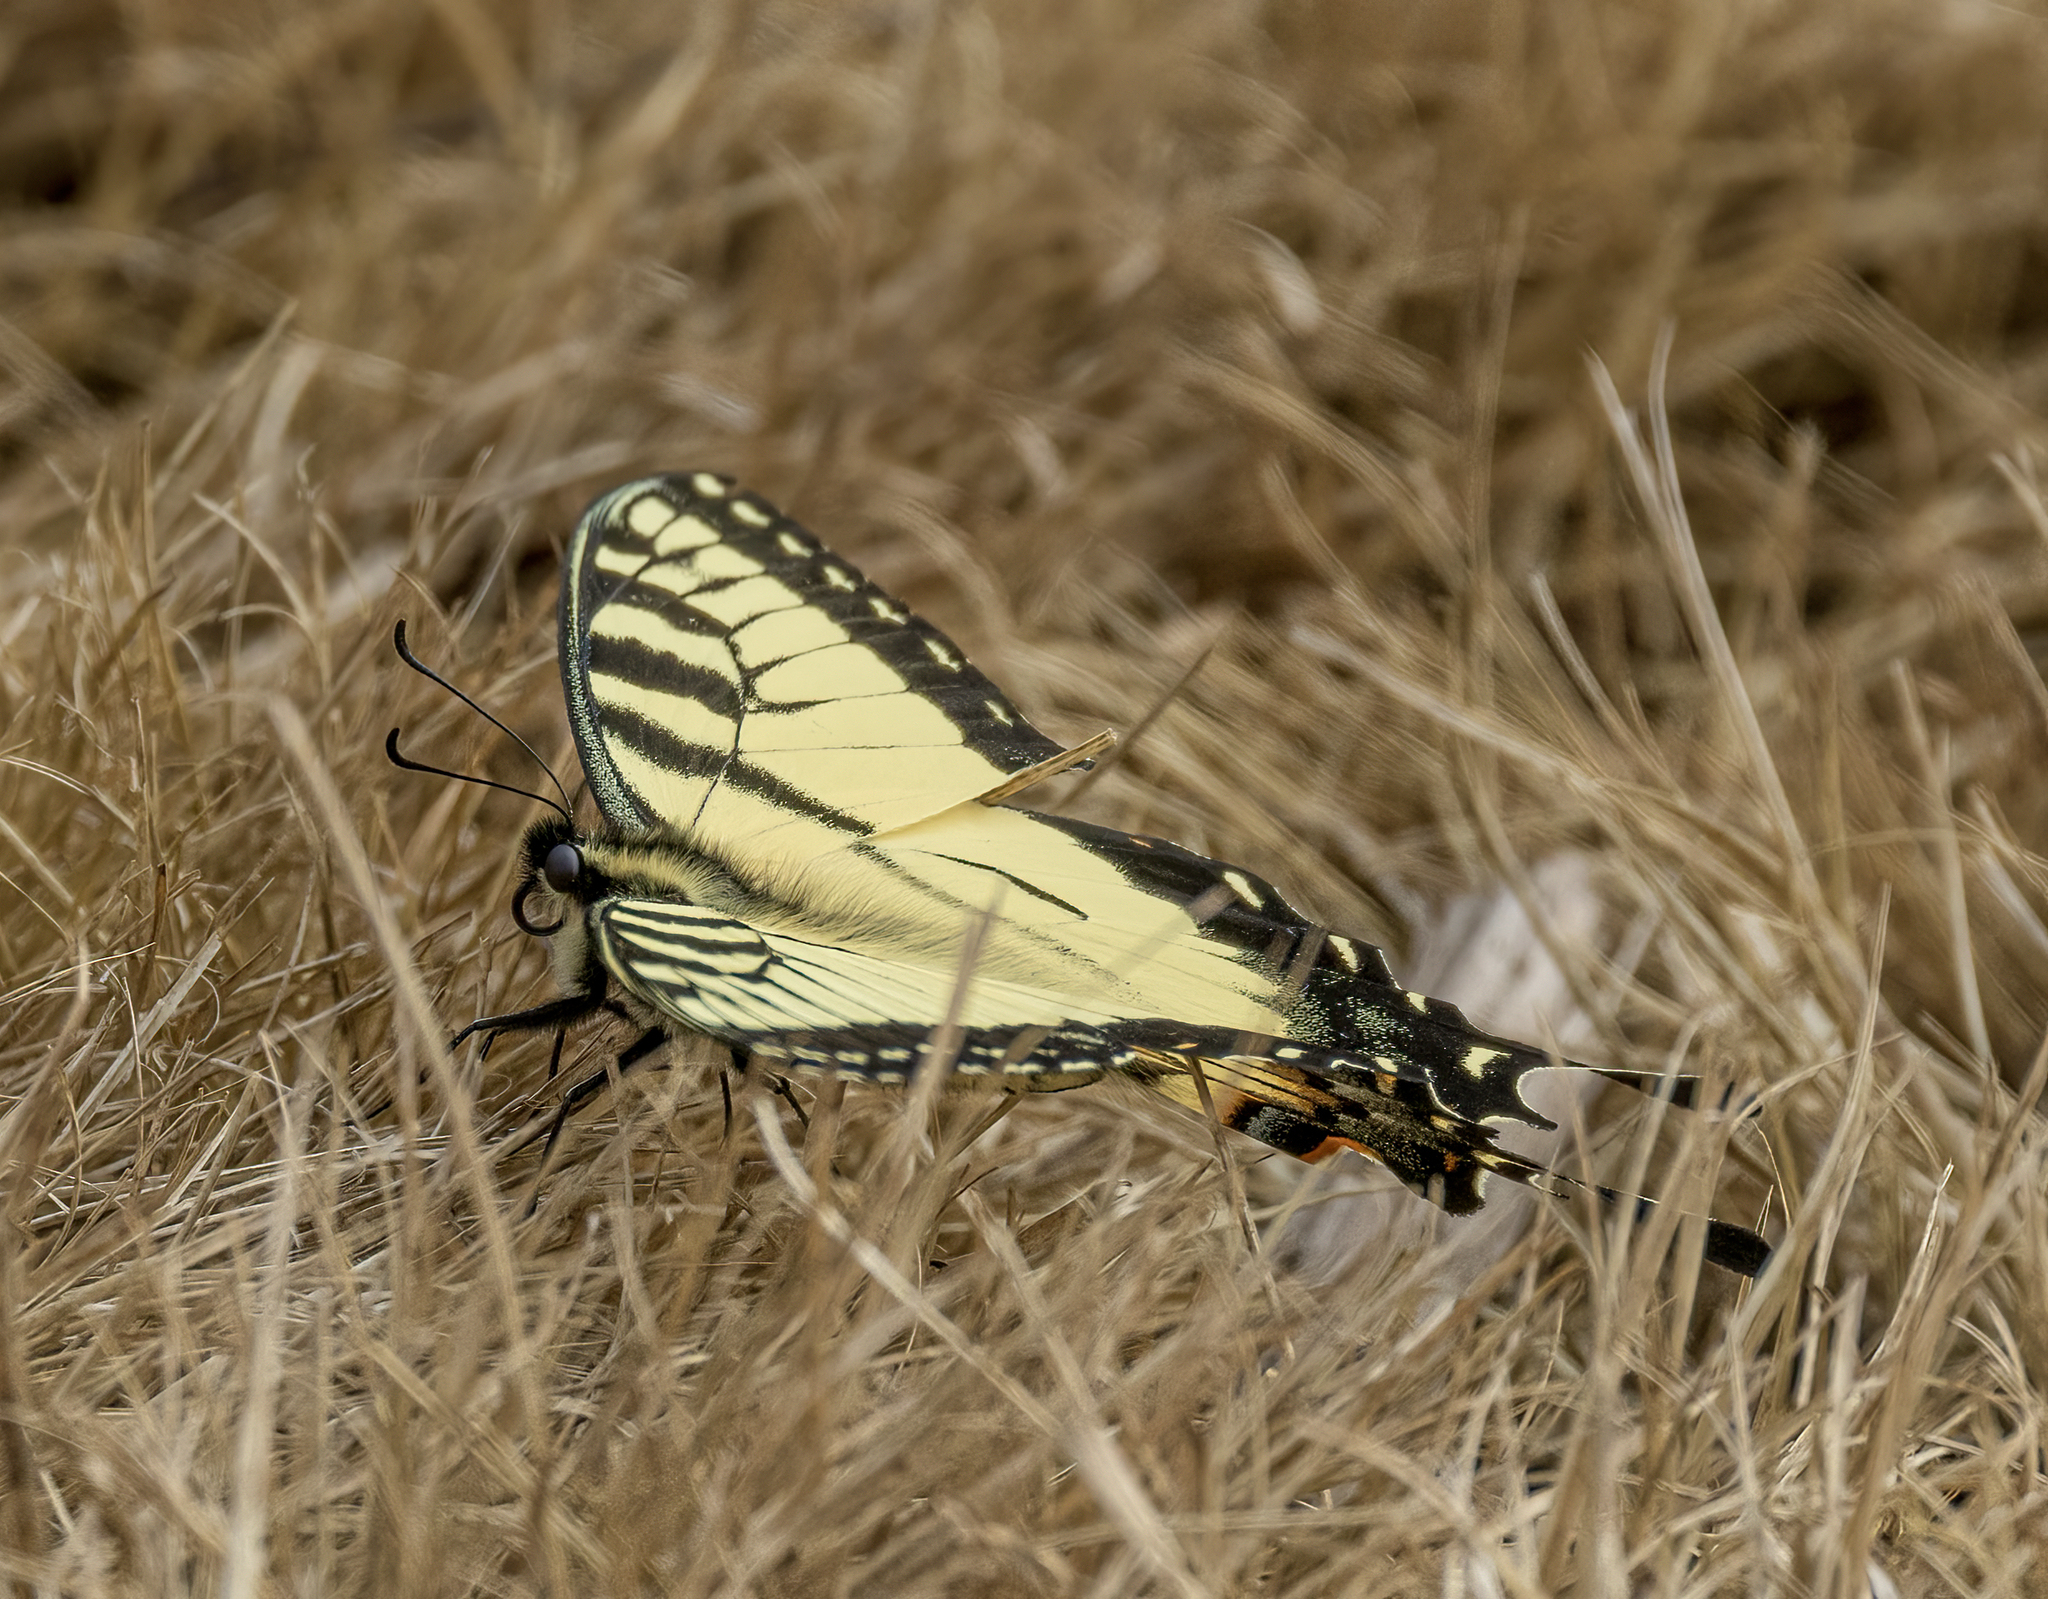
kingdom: Animalia
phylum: Arthropoda
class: Insecta
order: Lepidoptera
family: Papilionidae
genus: Papilio
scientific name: Papilio glaucus
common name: Tiger swallowtail
